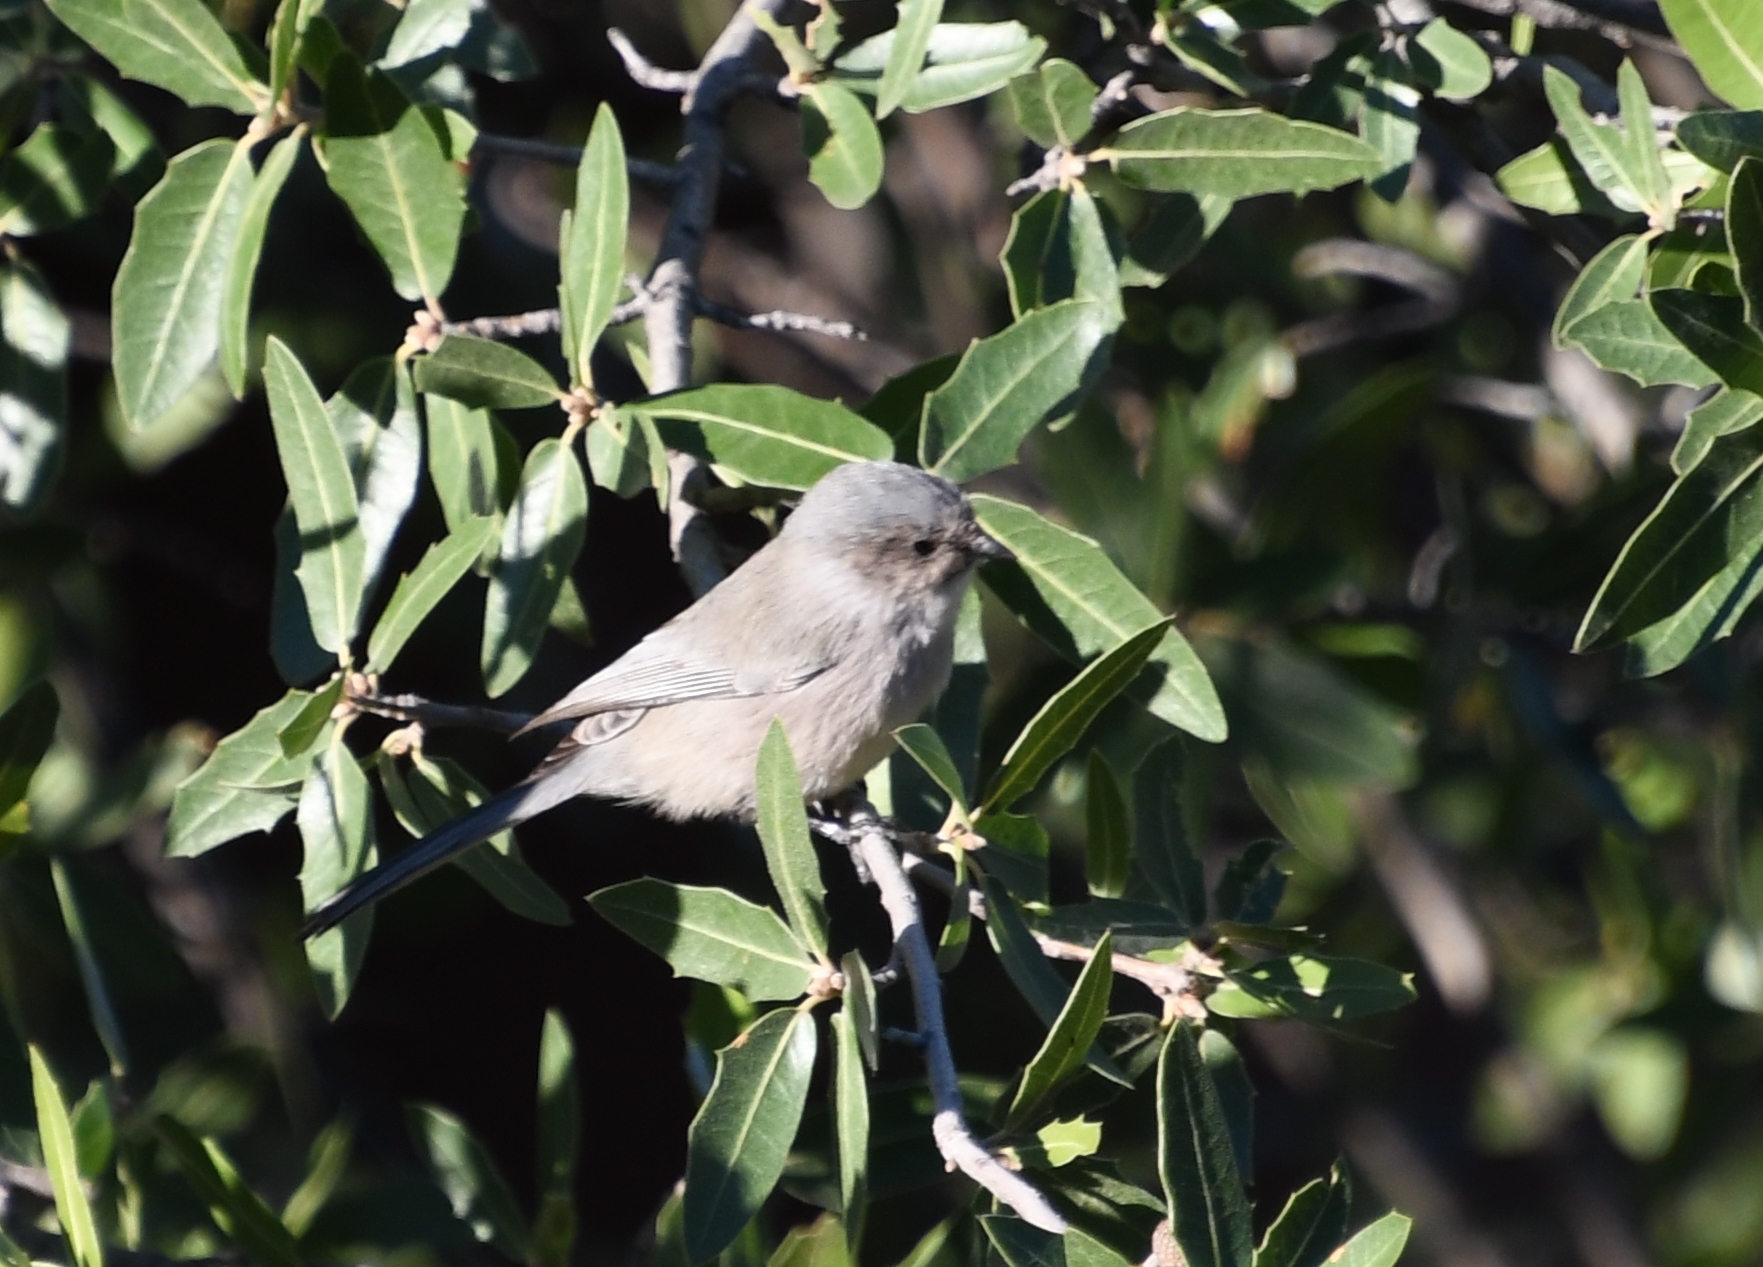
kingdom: Animalia
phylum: Chordata
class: Aves
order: Passeriformes
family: Aegithalidae
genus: Psaltriparus
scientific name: Psaltriparus minimus
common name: American bushtit
